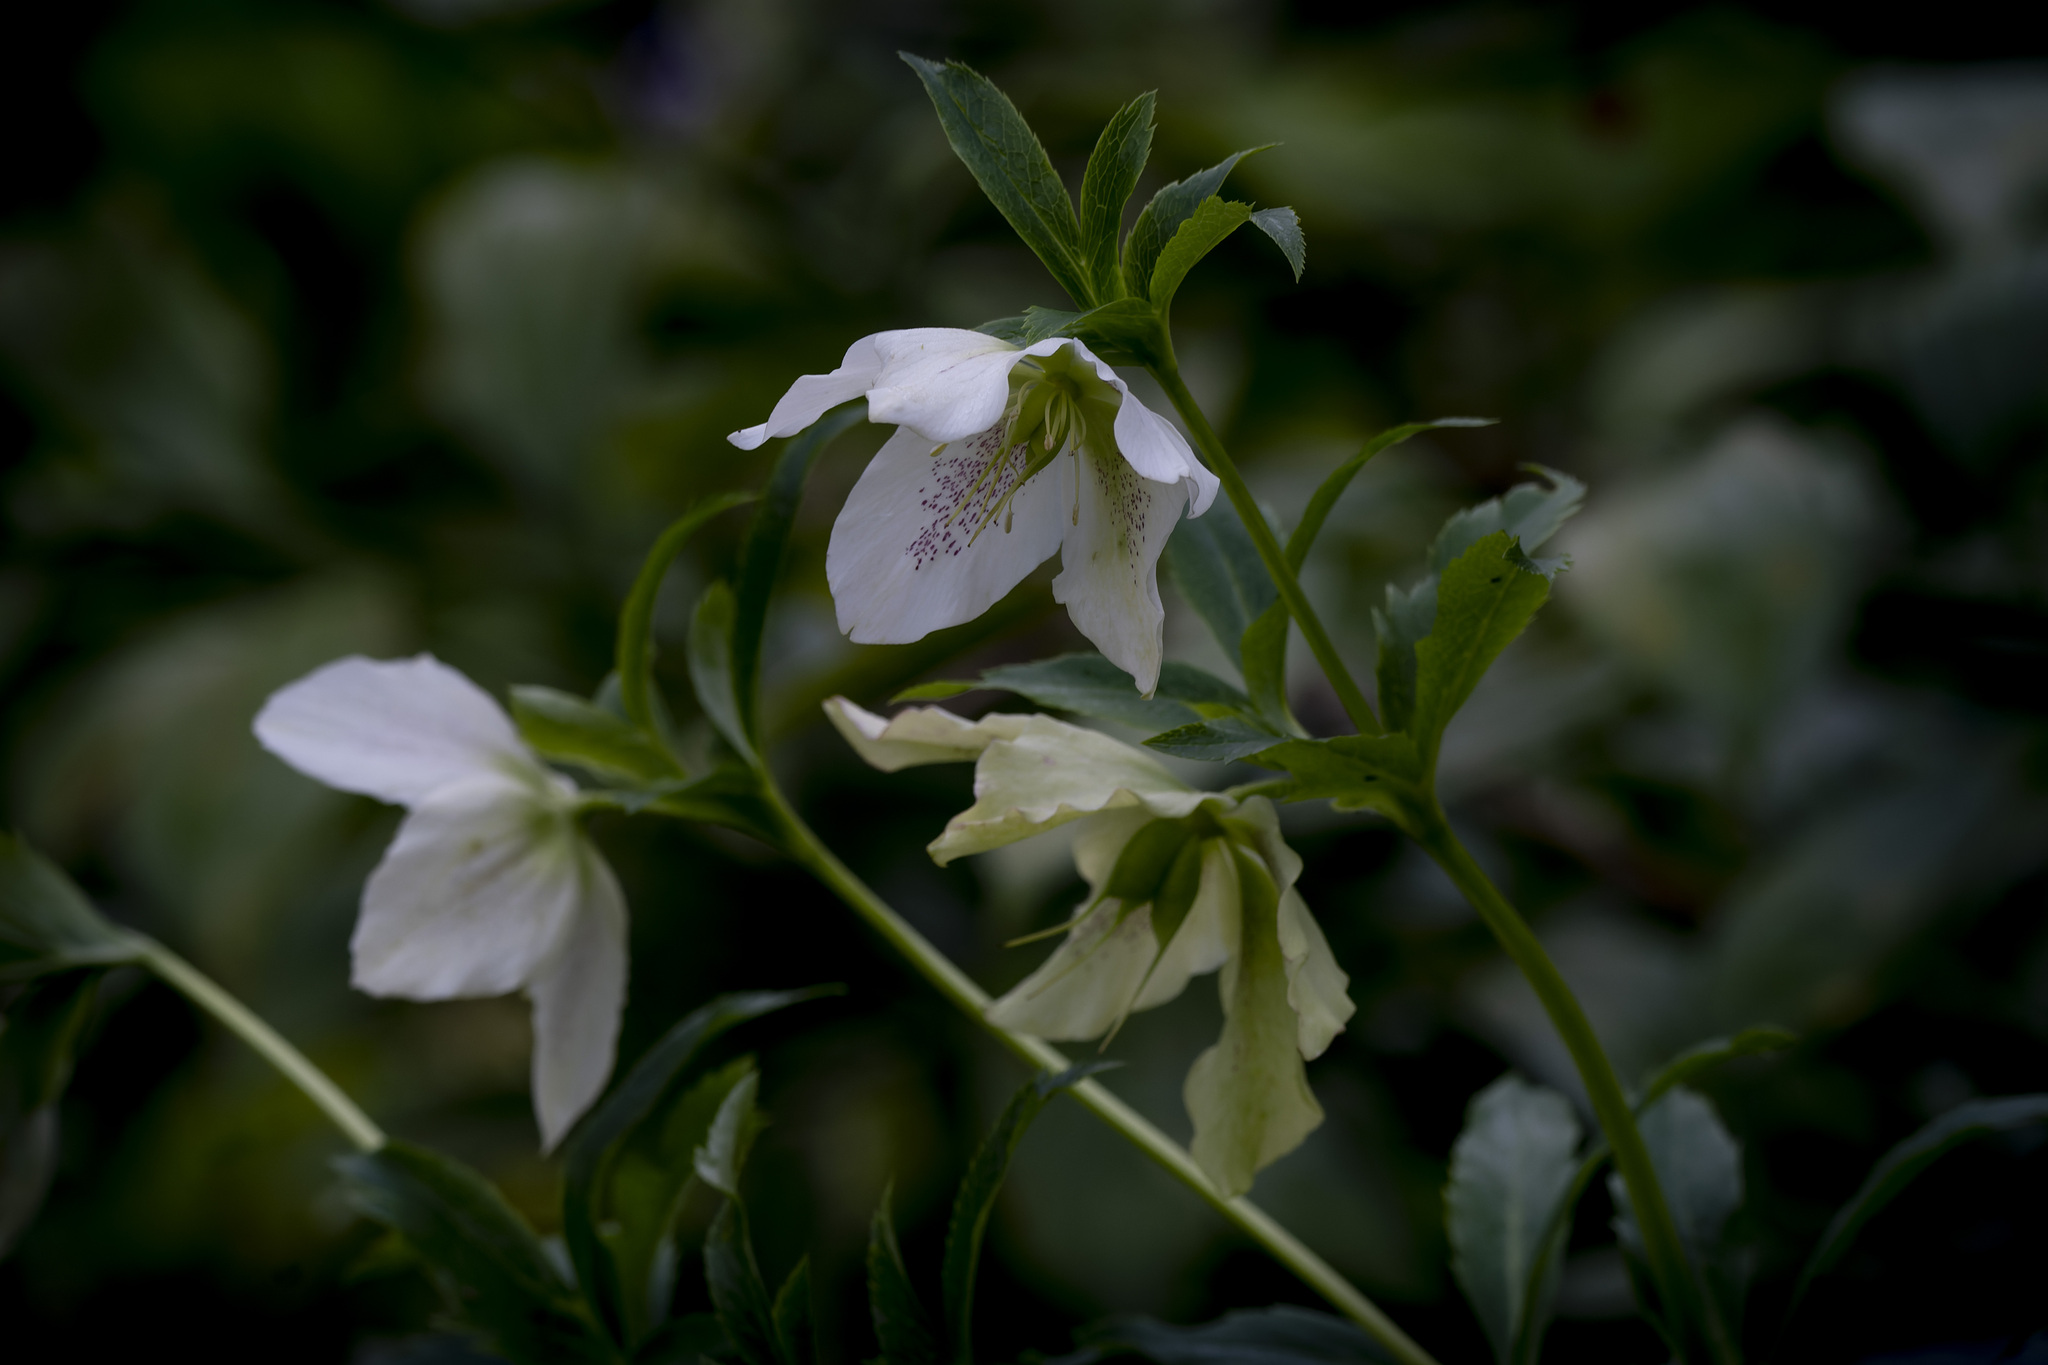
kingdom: Plantae
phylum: Tracheophyta
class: Magnoliopsida
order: Ranunculales
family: Ranunculaceae
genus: Helleborus
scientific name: Helleborus orientalis
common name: Lenten-rose
